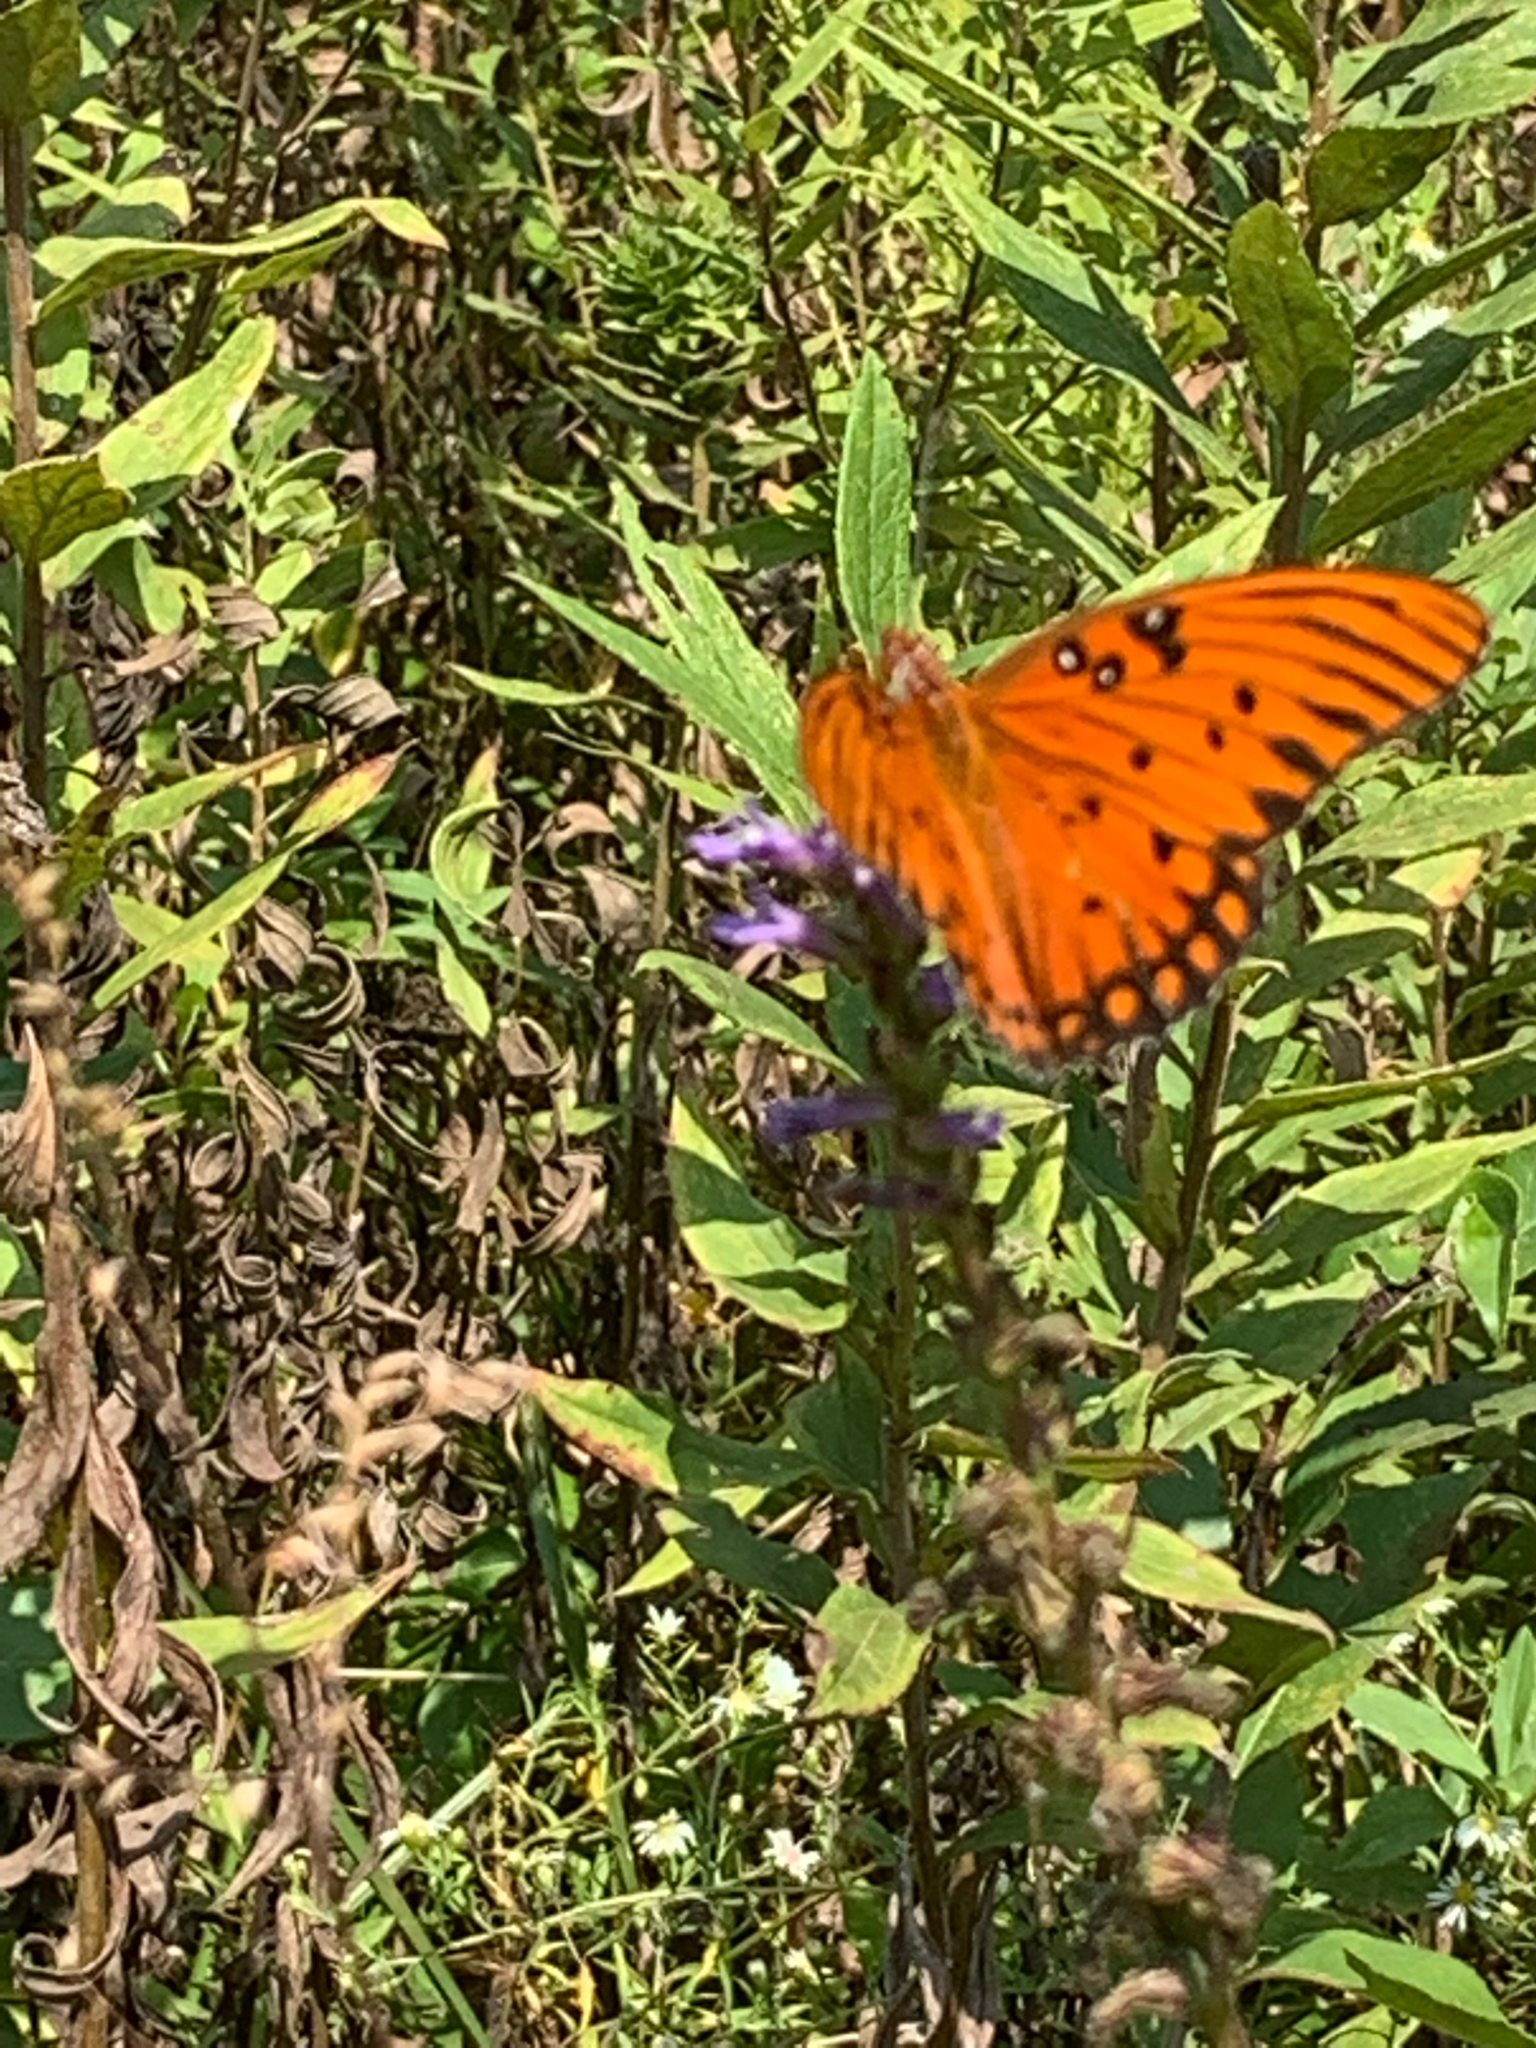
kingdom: Animalia
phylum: Arthropoda
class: Insecta
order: Lepidoptera
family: Nymphalidae
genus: Dione
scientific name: Dione vanillae
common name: Gulf fritillary
